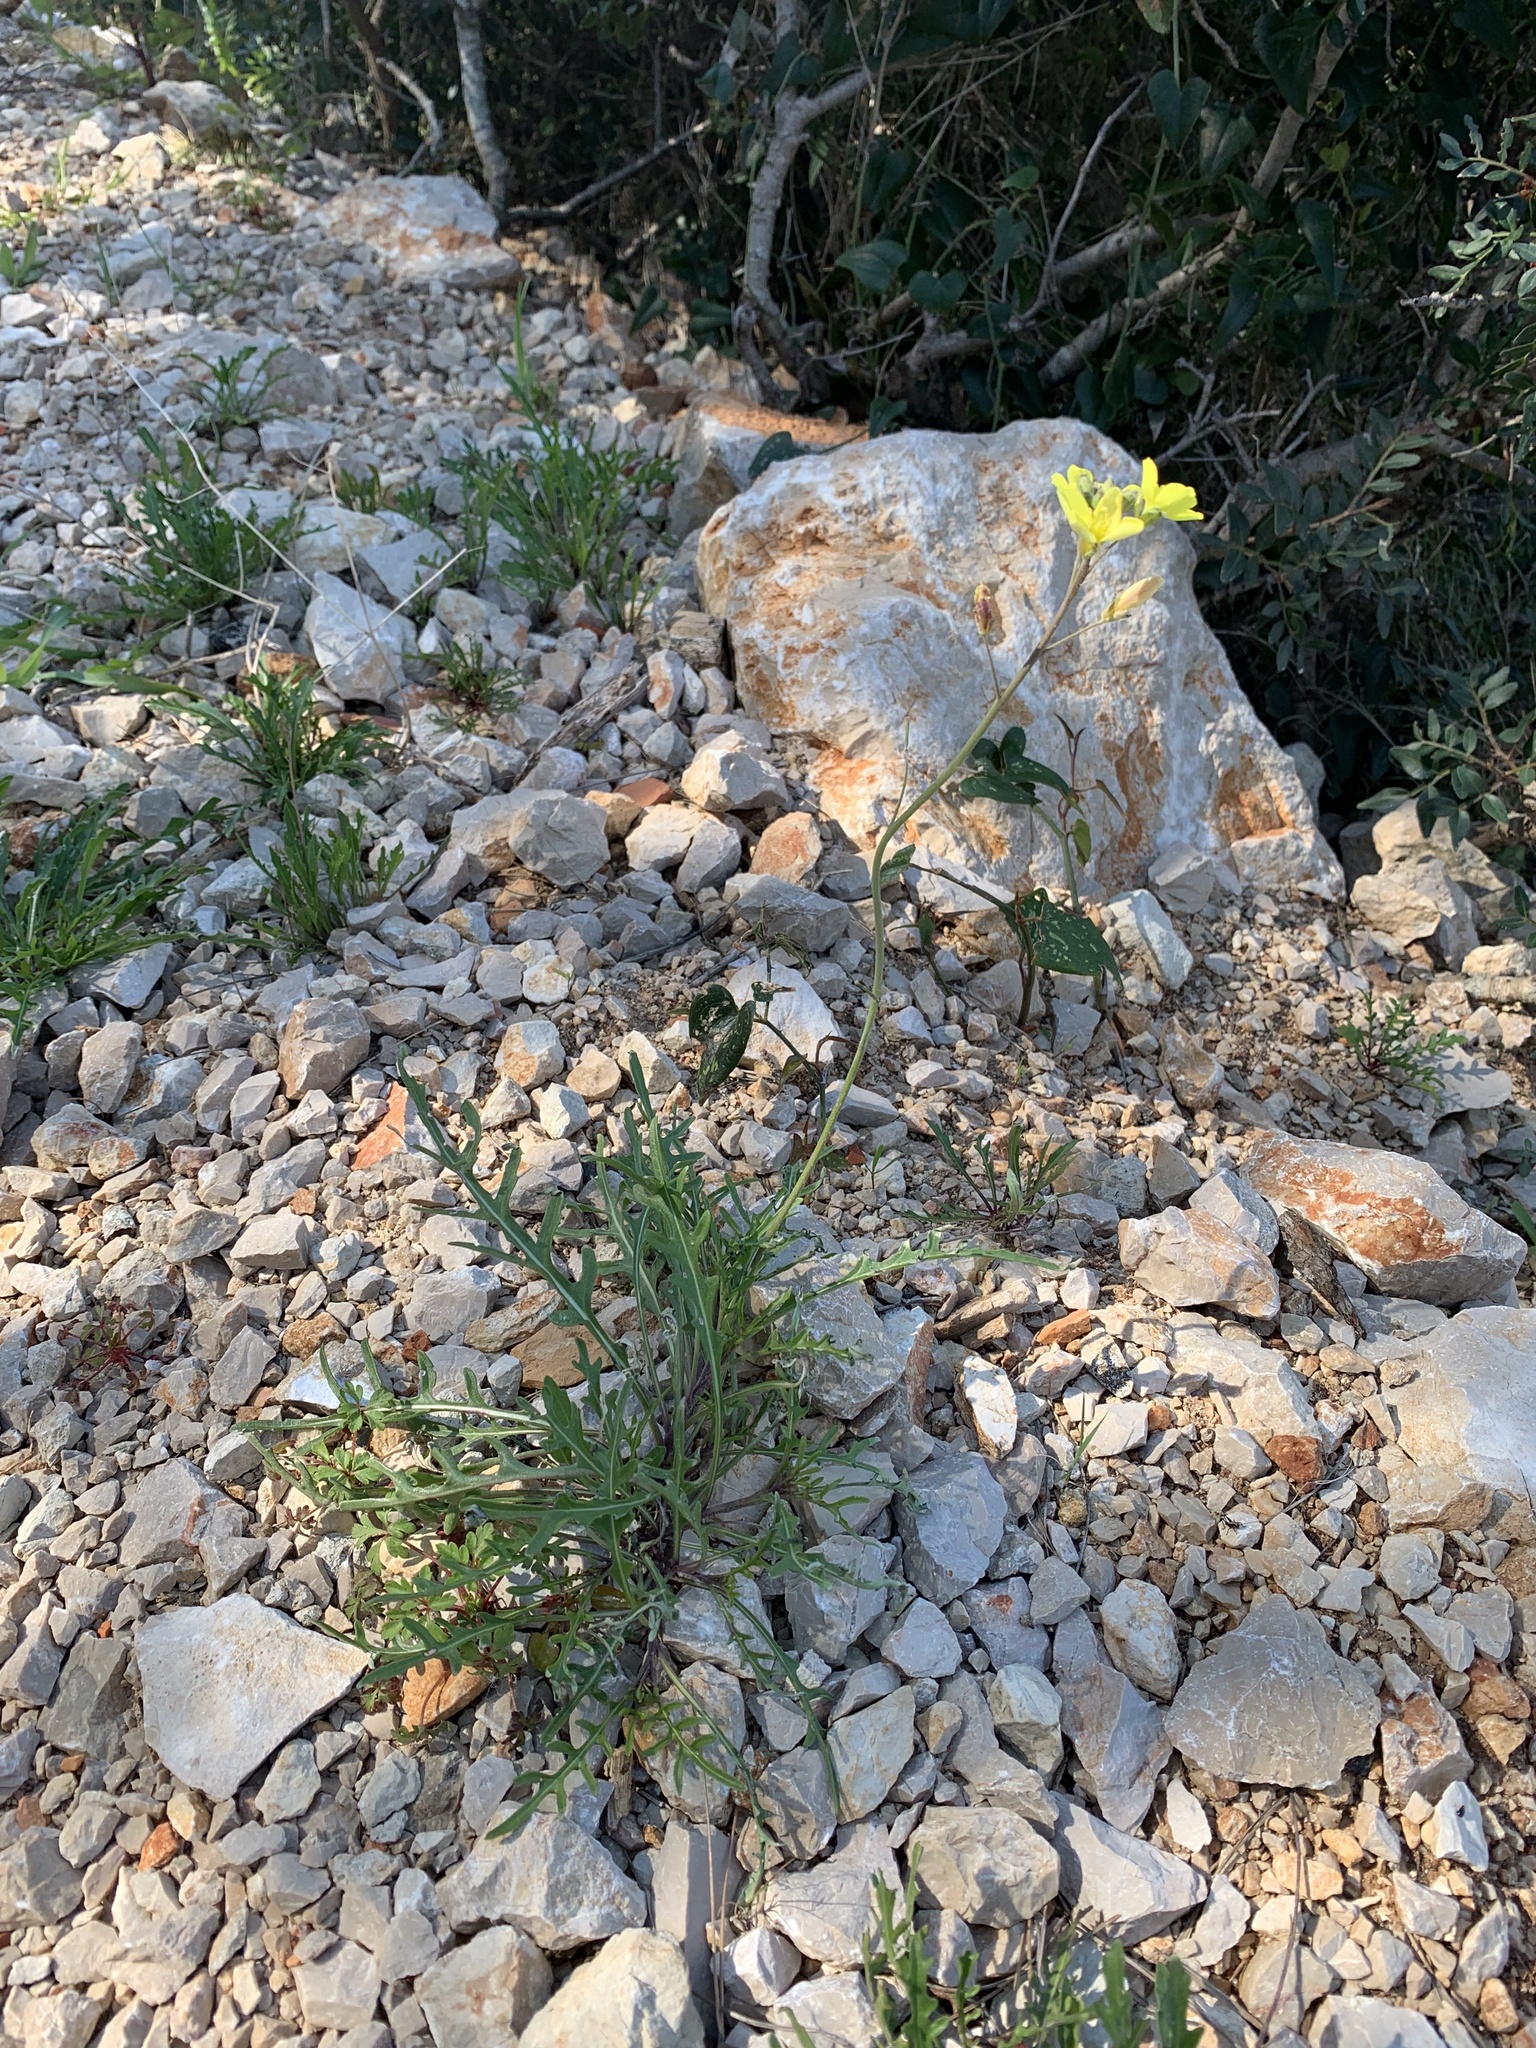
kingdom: Plantae
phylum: Tracheophyta
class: Magnoliopsida
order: Brassicales
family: Brassicaceae
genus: Diplotaxis
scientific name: Diplotaxis tenuifolia
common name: Perennial wall-rocket
